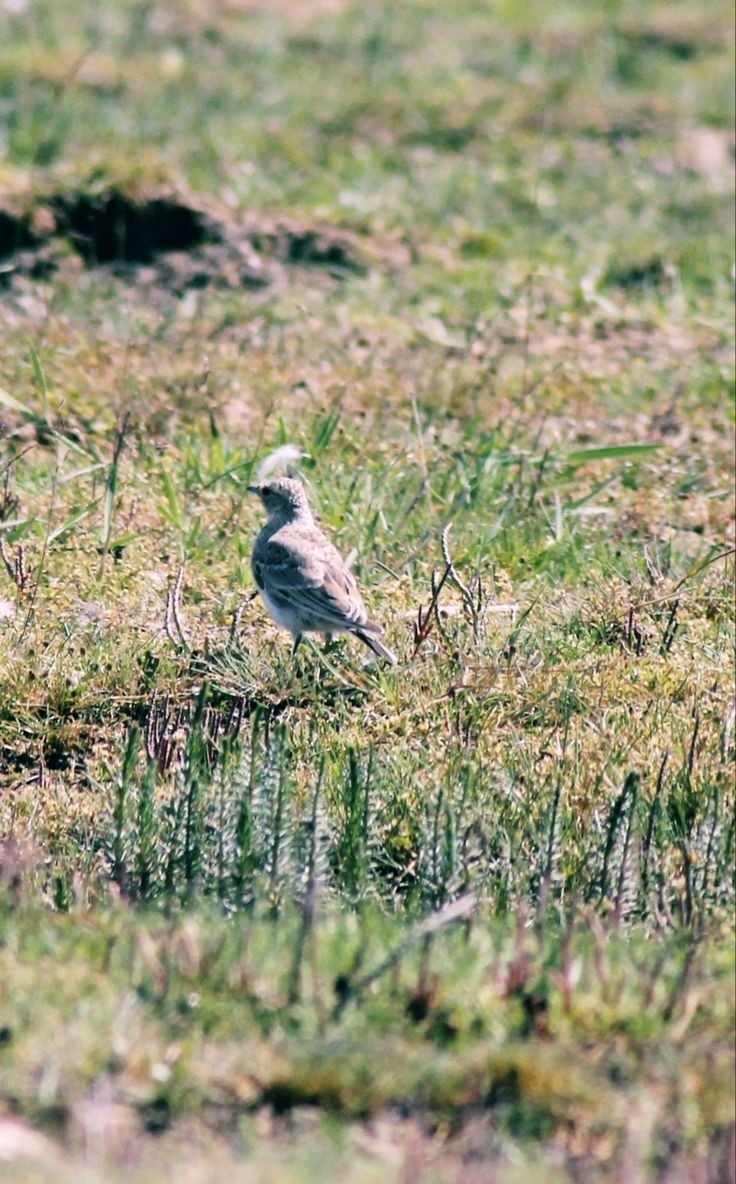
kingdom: Animalia
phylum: Chordata
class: Aves
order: Passeriformes
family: Motacillidae
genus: Anthus
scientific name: Anthus spinoletta
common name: Water pipit
